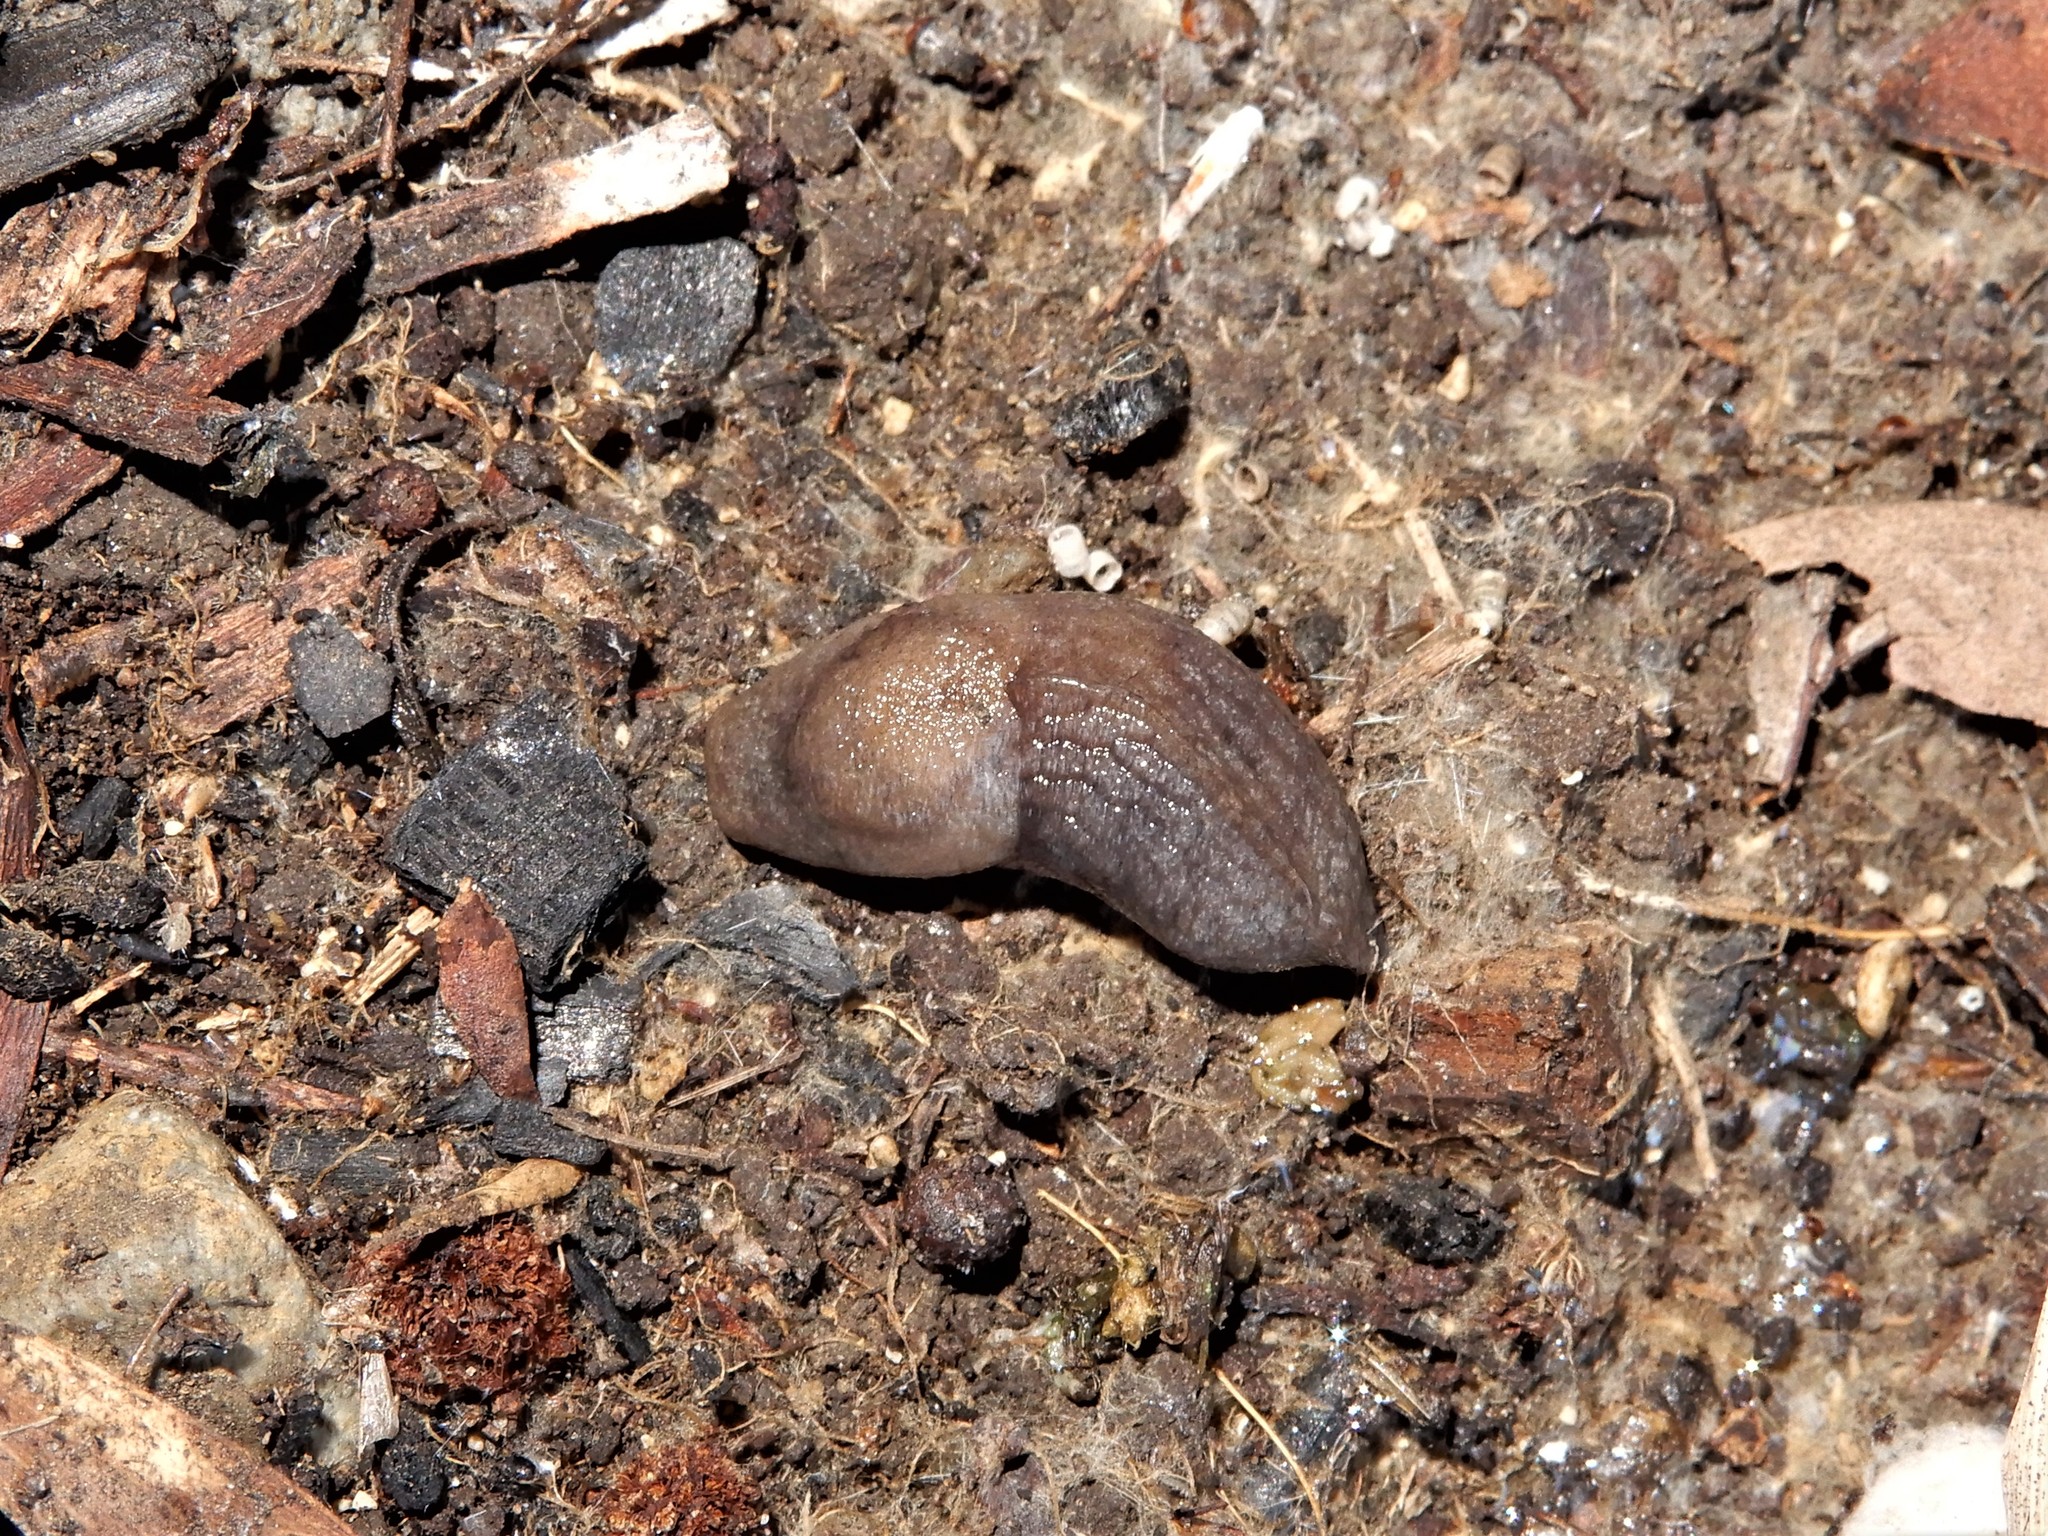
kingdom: Animalia
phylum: Mollusca
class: Gastropoda
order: Stylommatophora
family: Milacidae
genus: Milax
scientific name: Milax gagates
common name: Greenhouse slug
